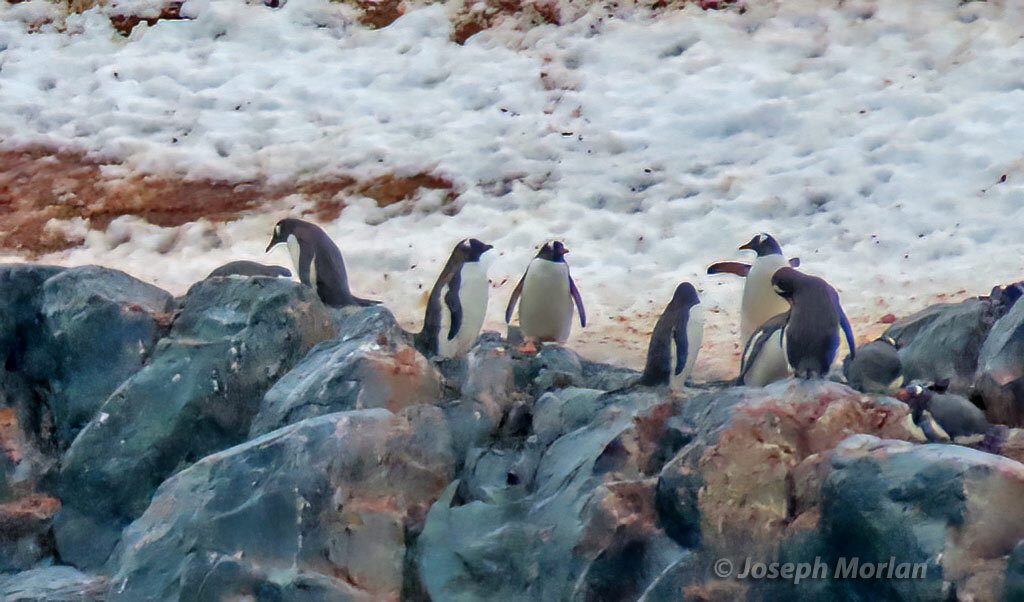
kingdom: Animalia
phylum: Chordata
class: Aves
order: Sphenisciformes
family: Spheniscidae
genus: Pygoscelis
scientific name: Pygoscelis papua
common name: Gentoo penguin
